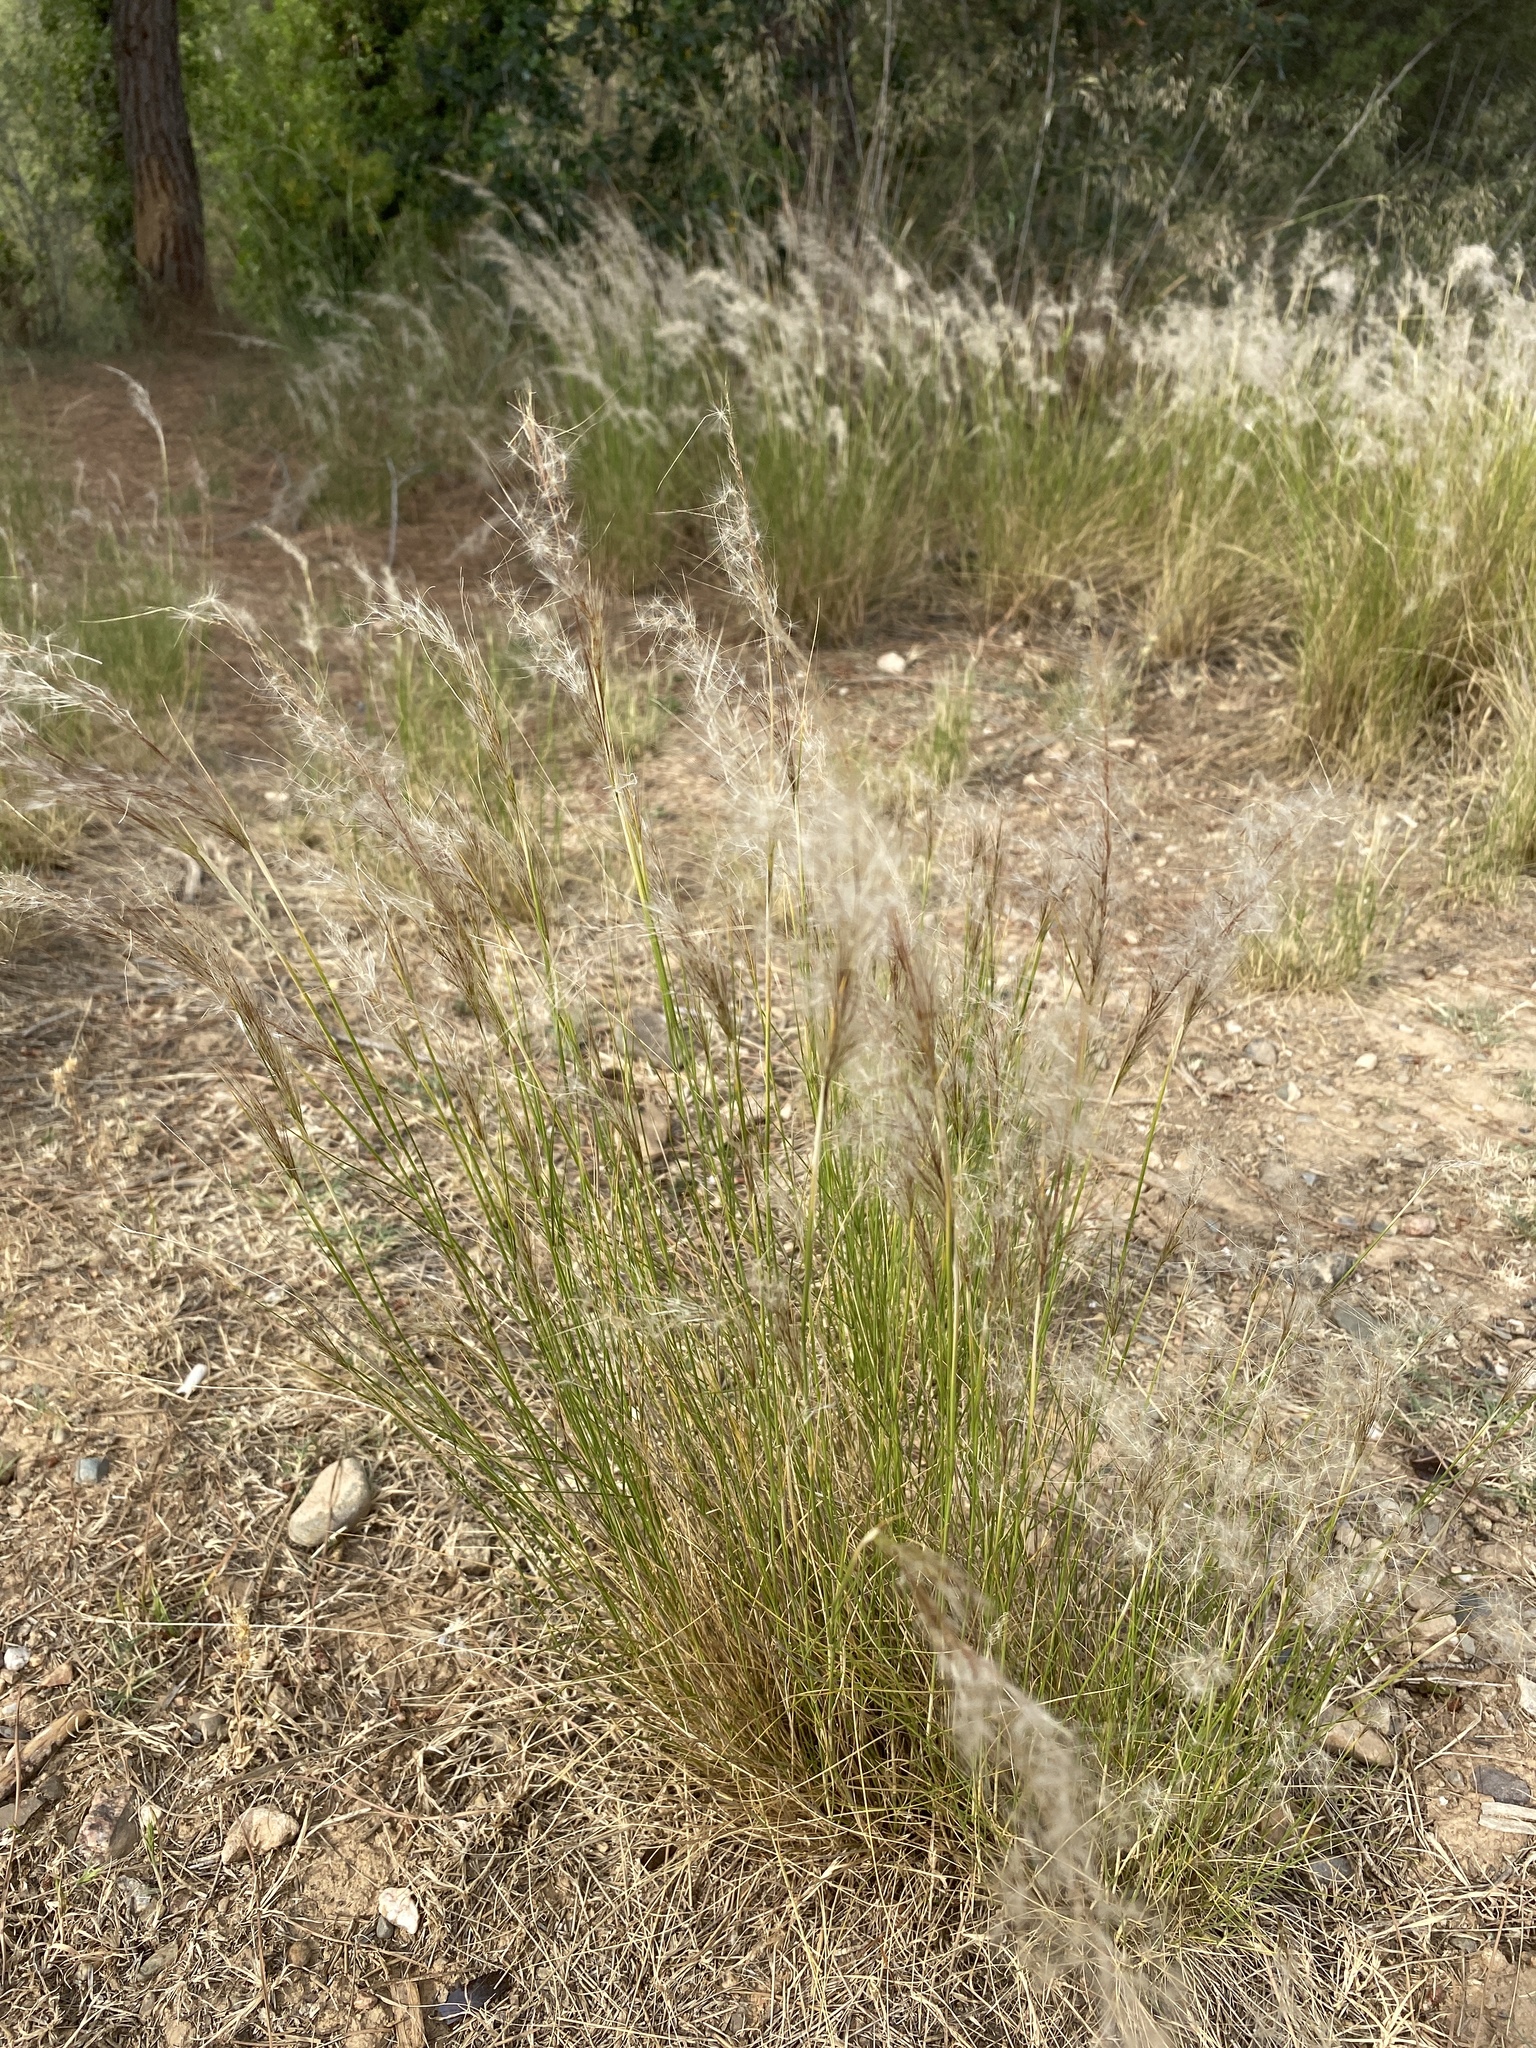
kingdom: Plantae
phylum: Tracheophyta
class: Liliopsida
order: Poales
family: Poaceae
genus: Jarava
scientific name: Jarava plumosa
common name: South american rice grass
